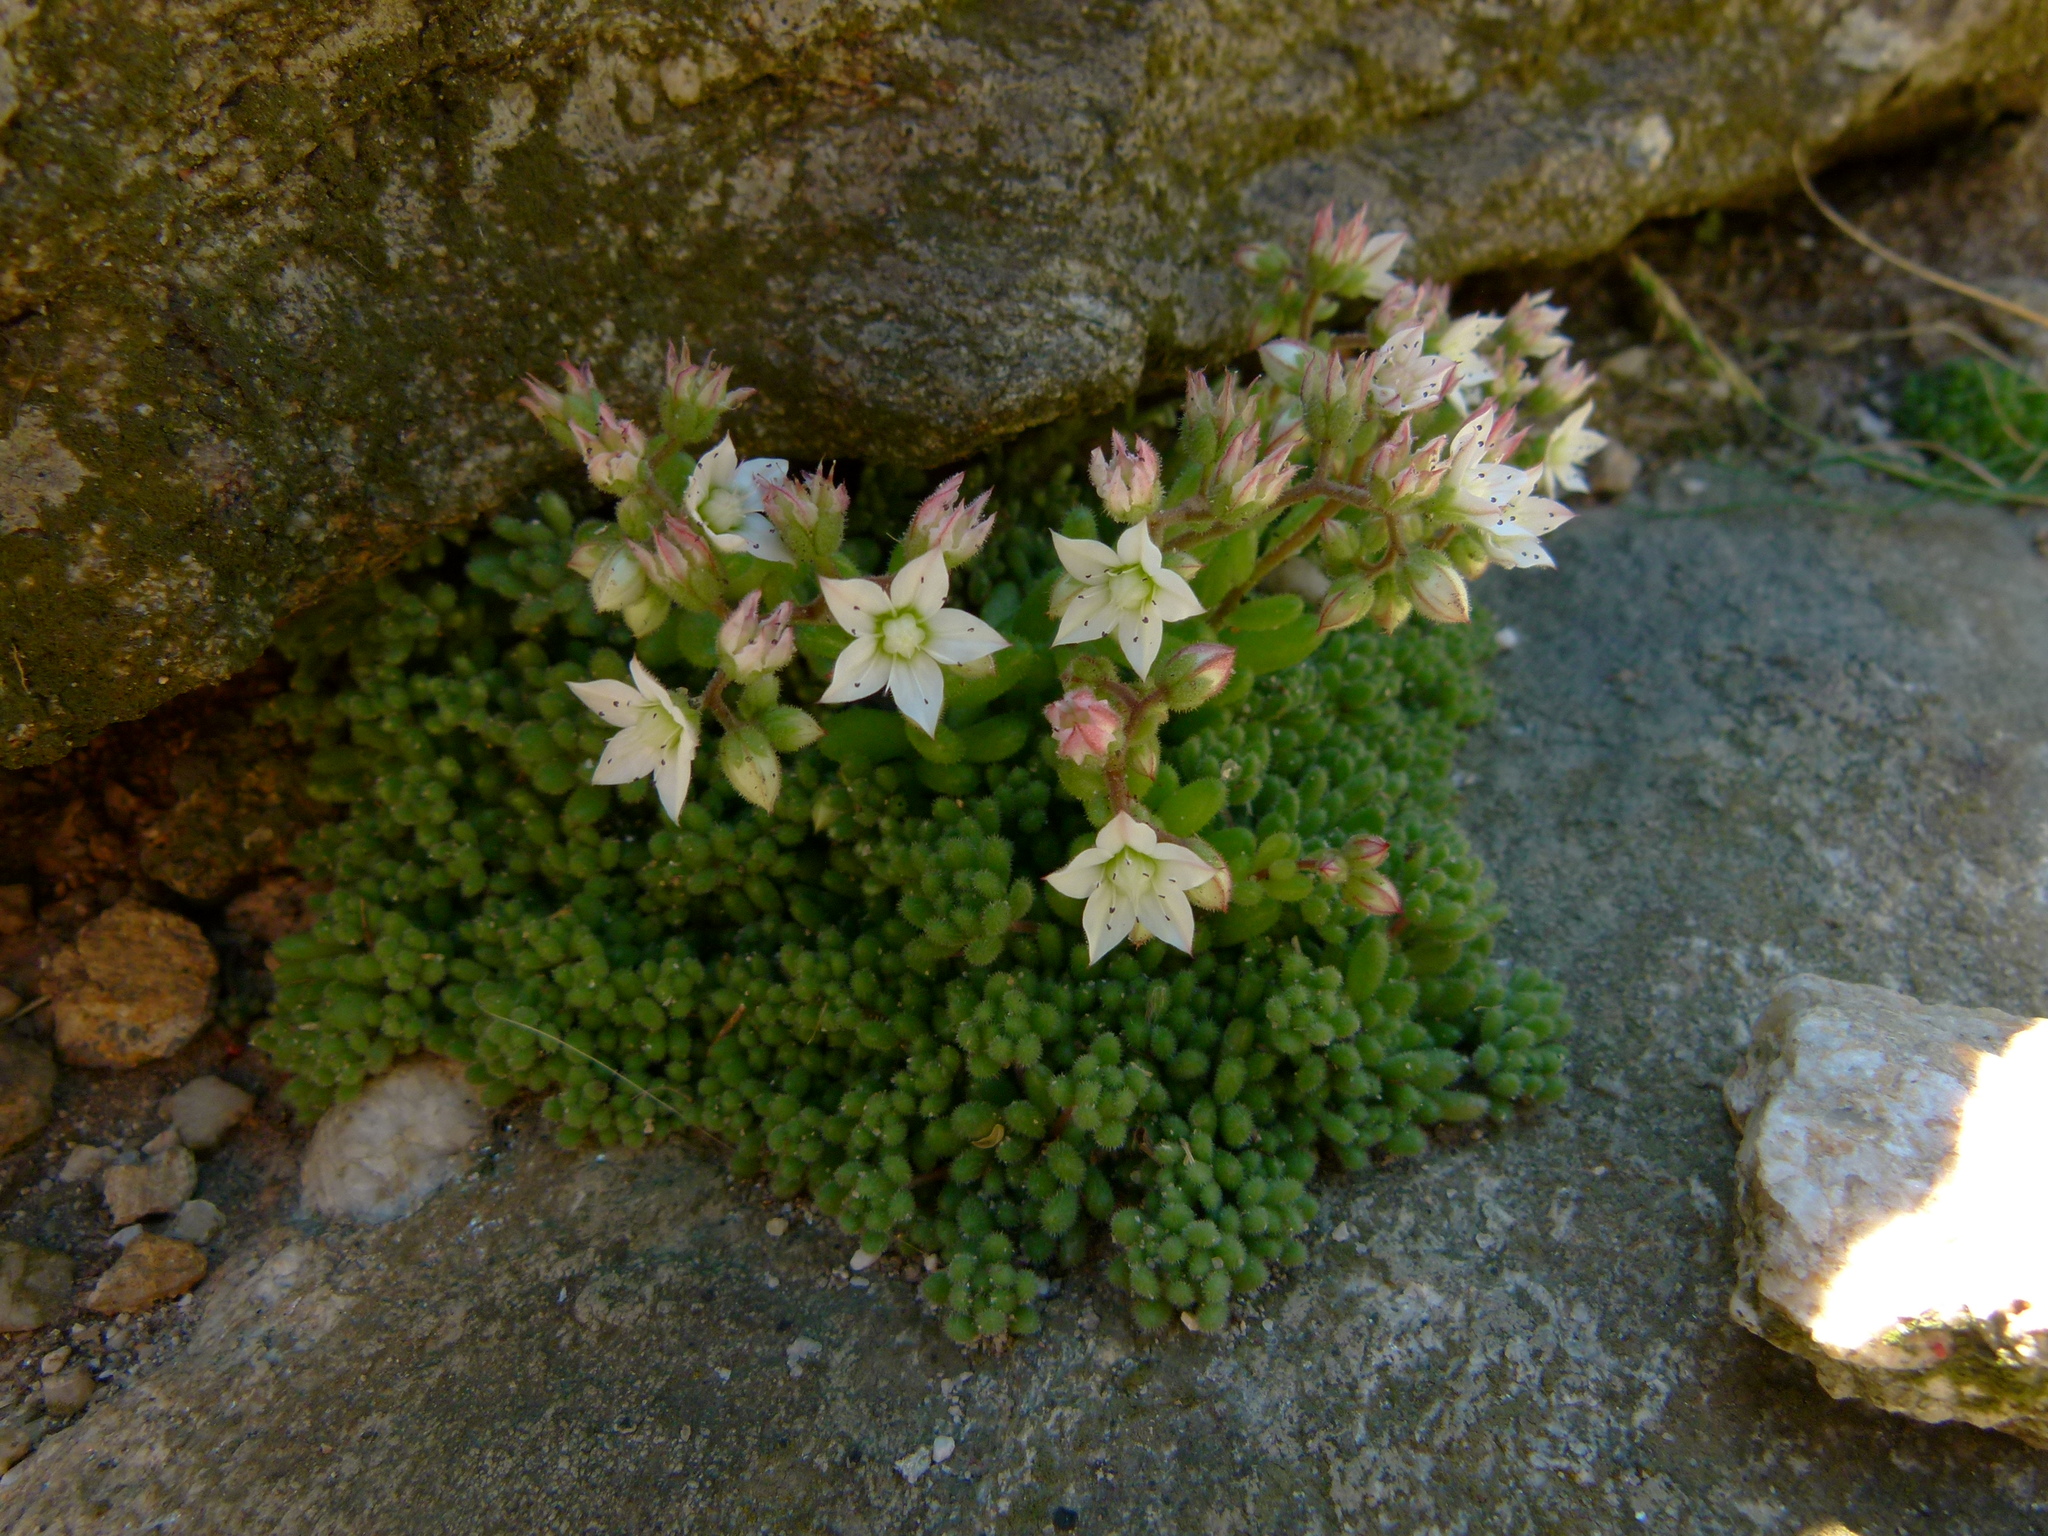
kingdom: Plantae
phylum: Tracheophyta
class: Magnoliopsida
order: Saxifragales
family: Crassulaceae
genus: Sedum
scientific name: Sedum hirsutum
